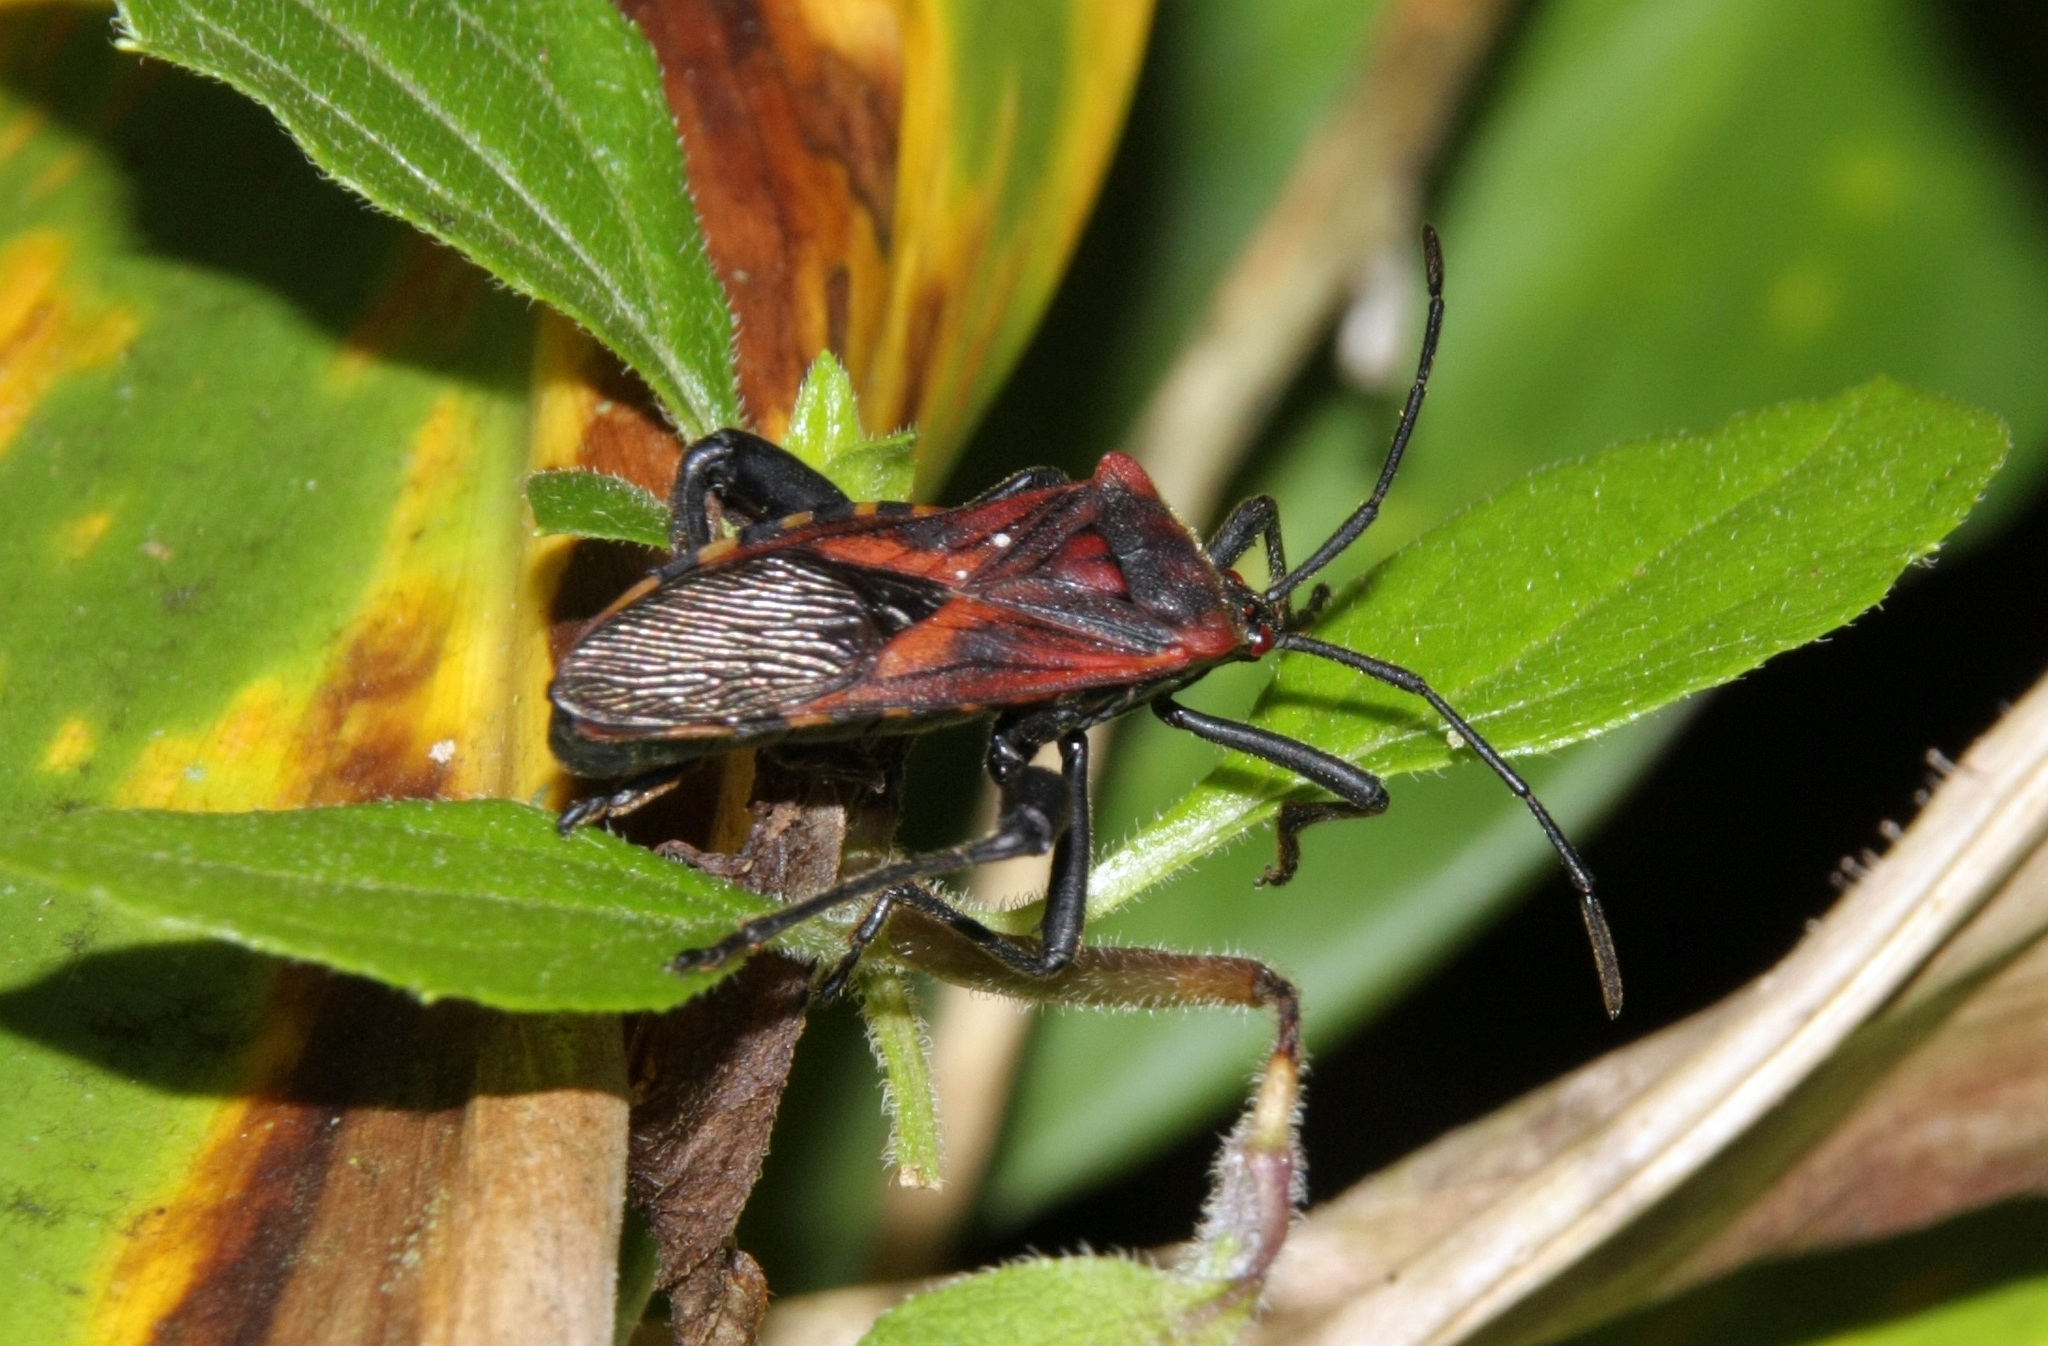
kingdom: Animalia
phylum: Arthropoda
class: Insecta
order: Hemiptera
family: Coreidae
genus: Piezogaster
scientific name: Piezogaster rubropictus
